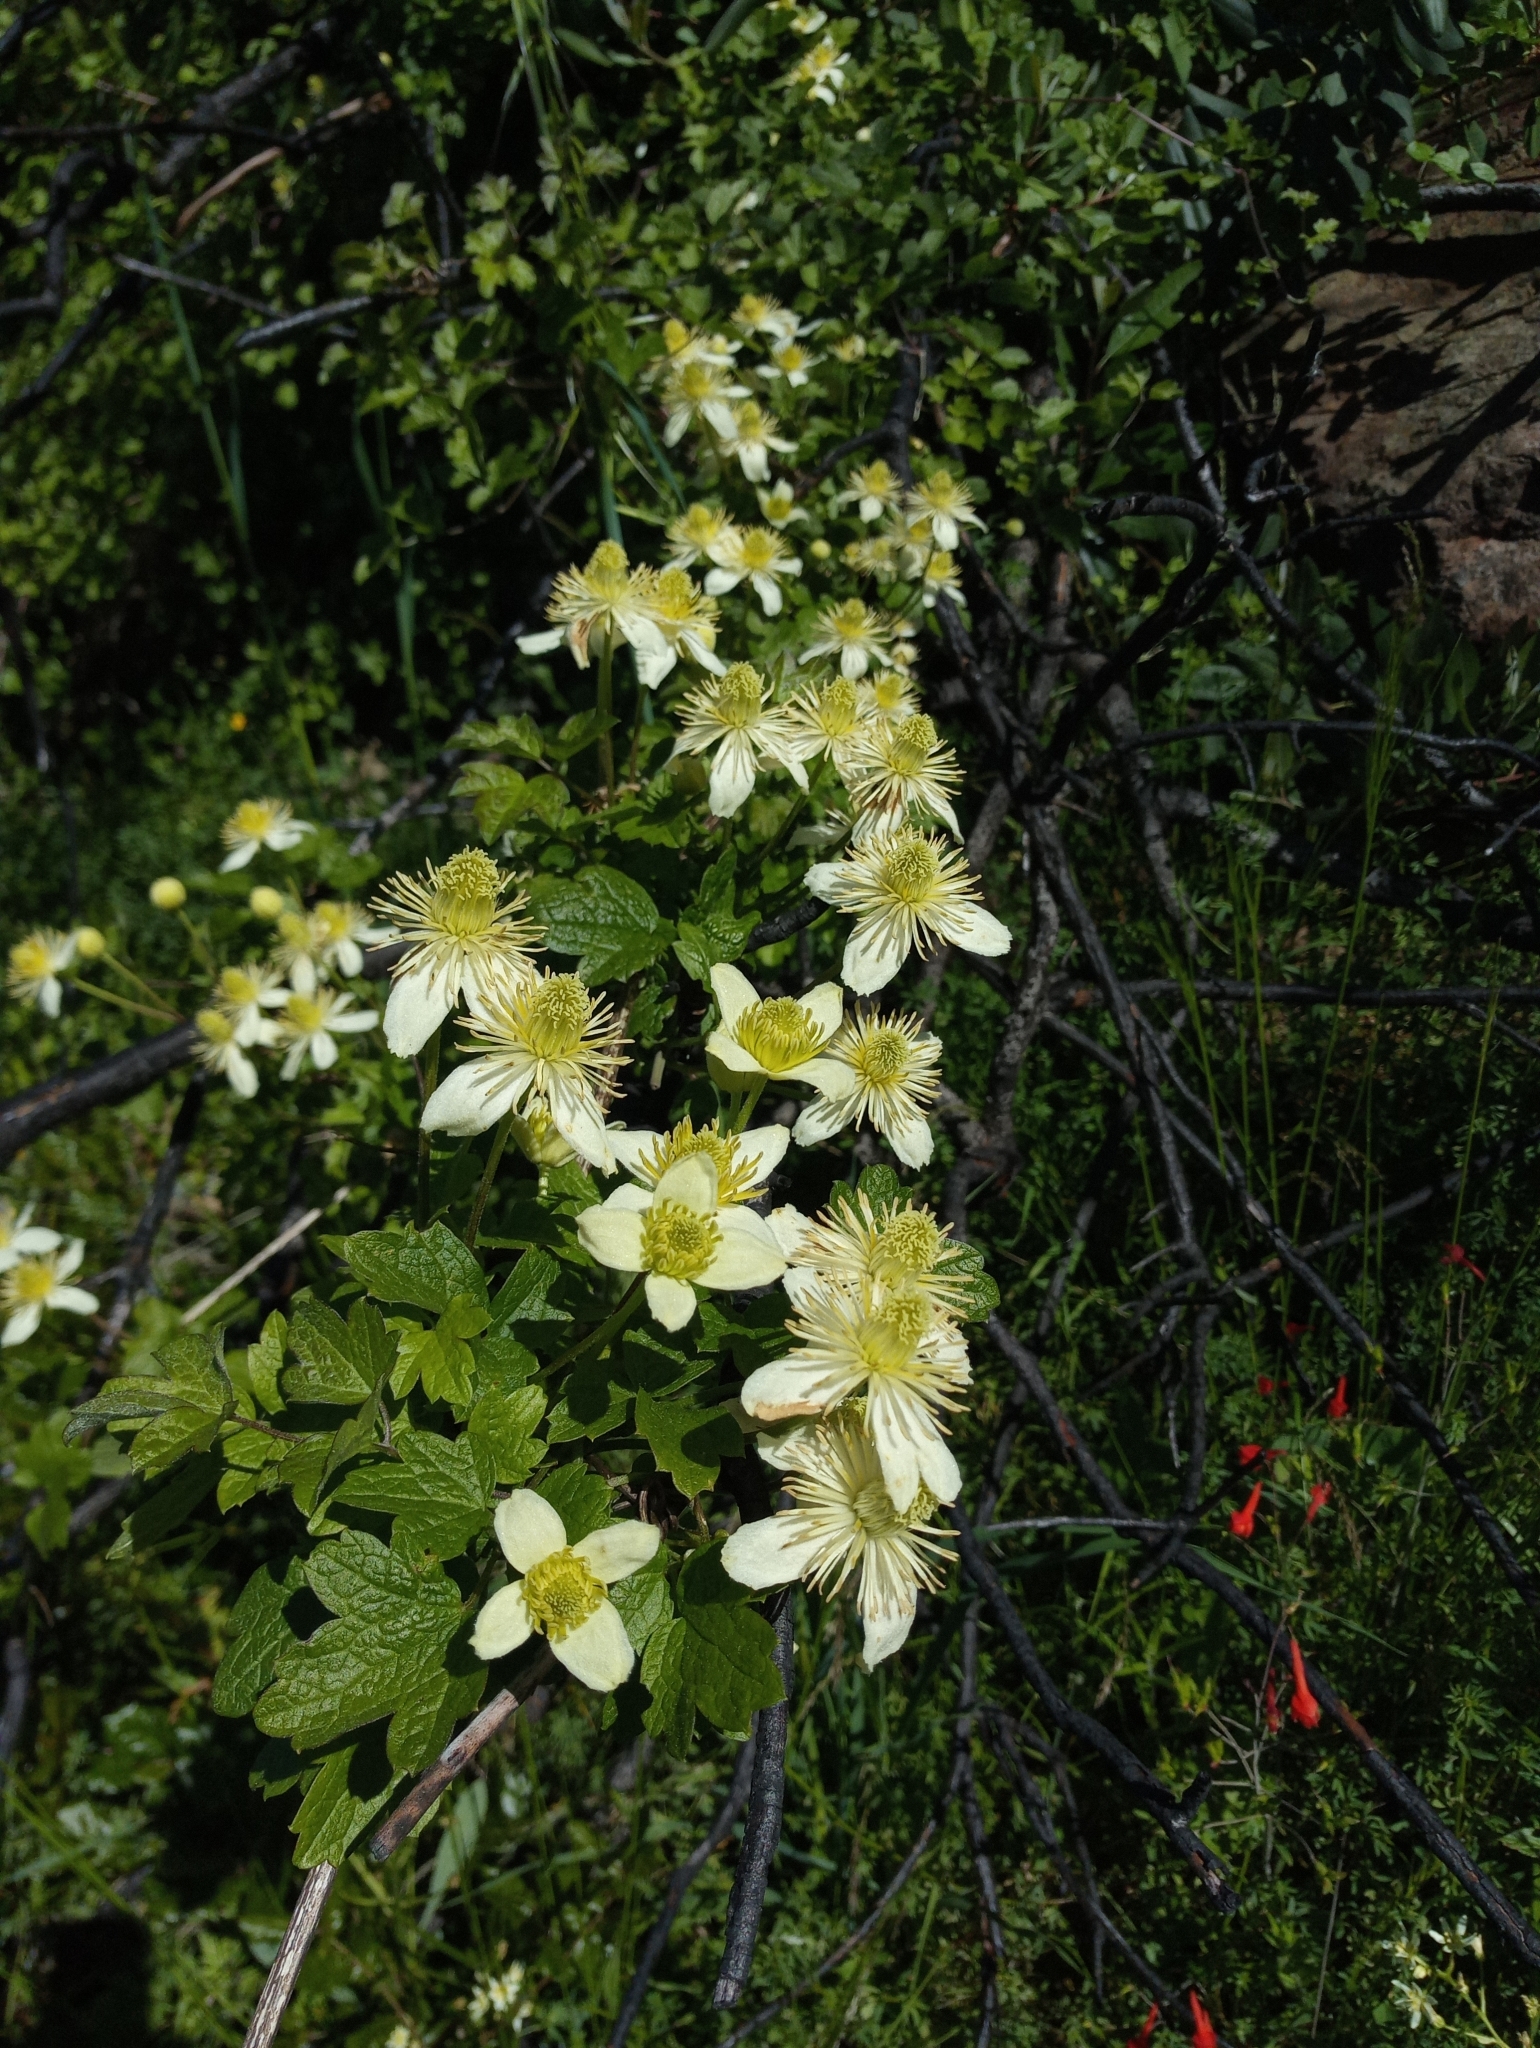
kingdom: Plantae
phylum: Tracheophyta
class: Magnoliopsida
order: Ranunculales
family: Ranunculaceae
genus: Clematis
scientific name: Clematis lasiantha
